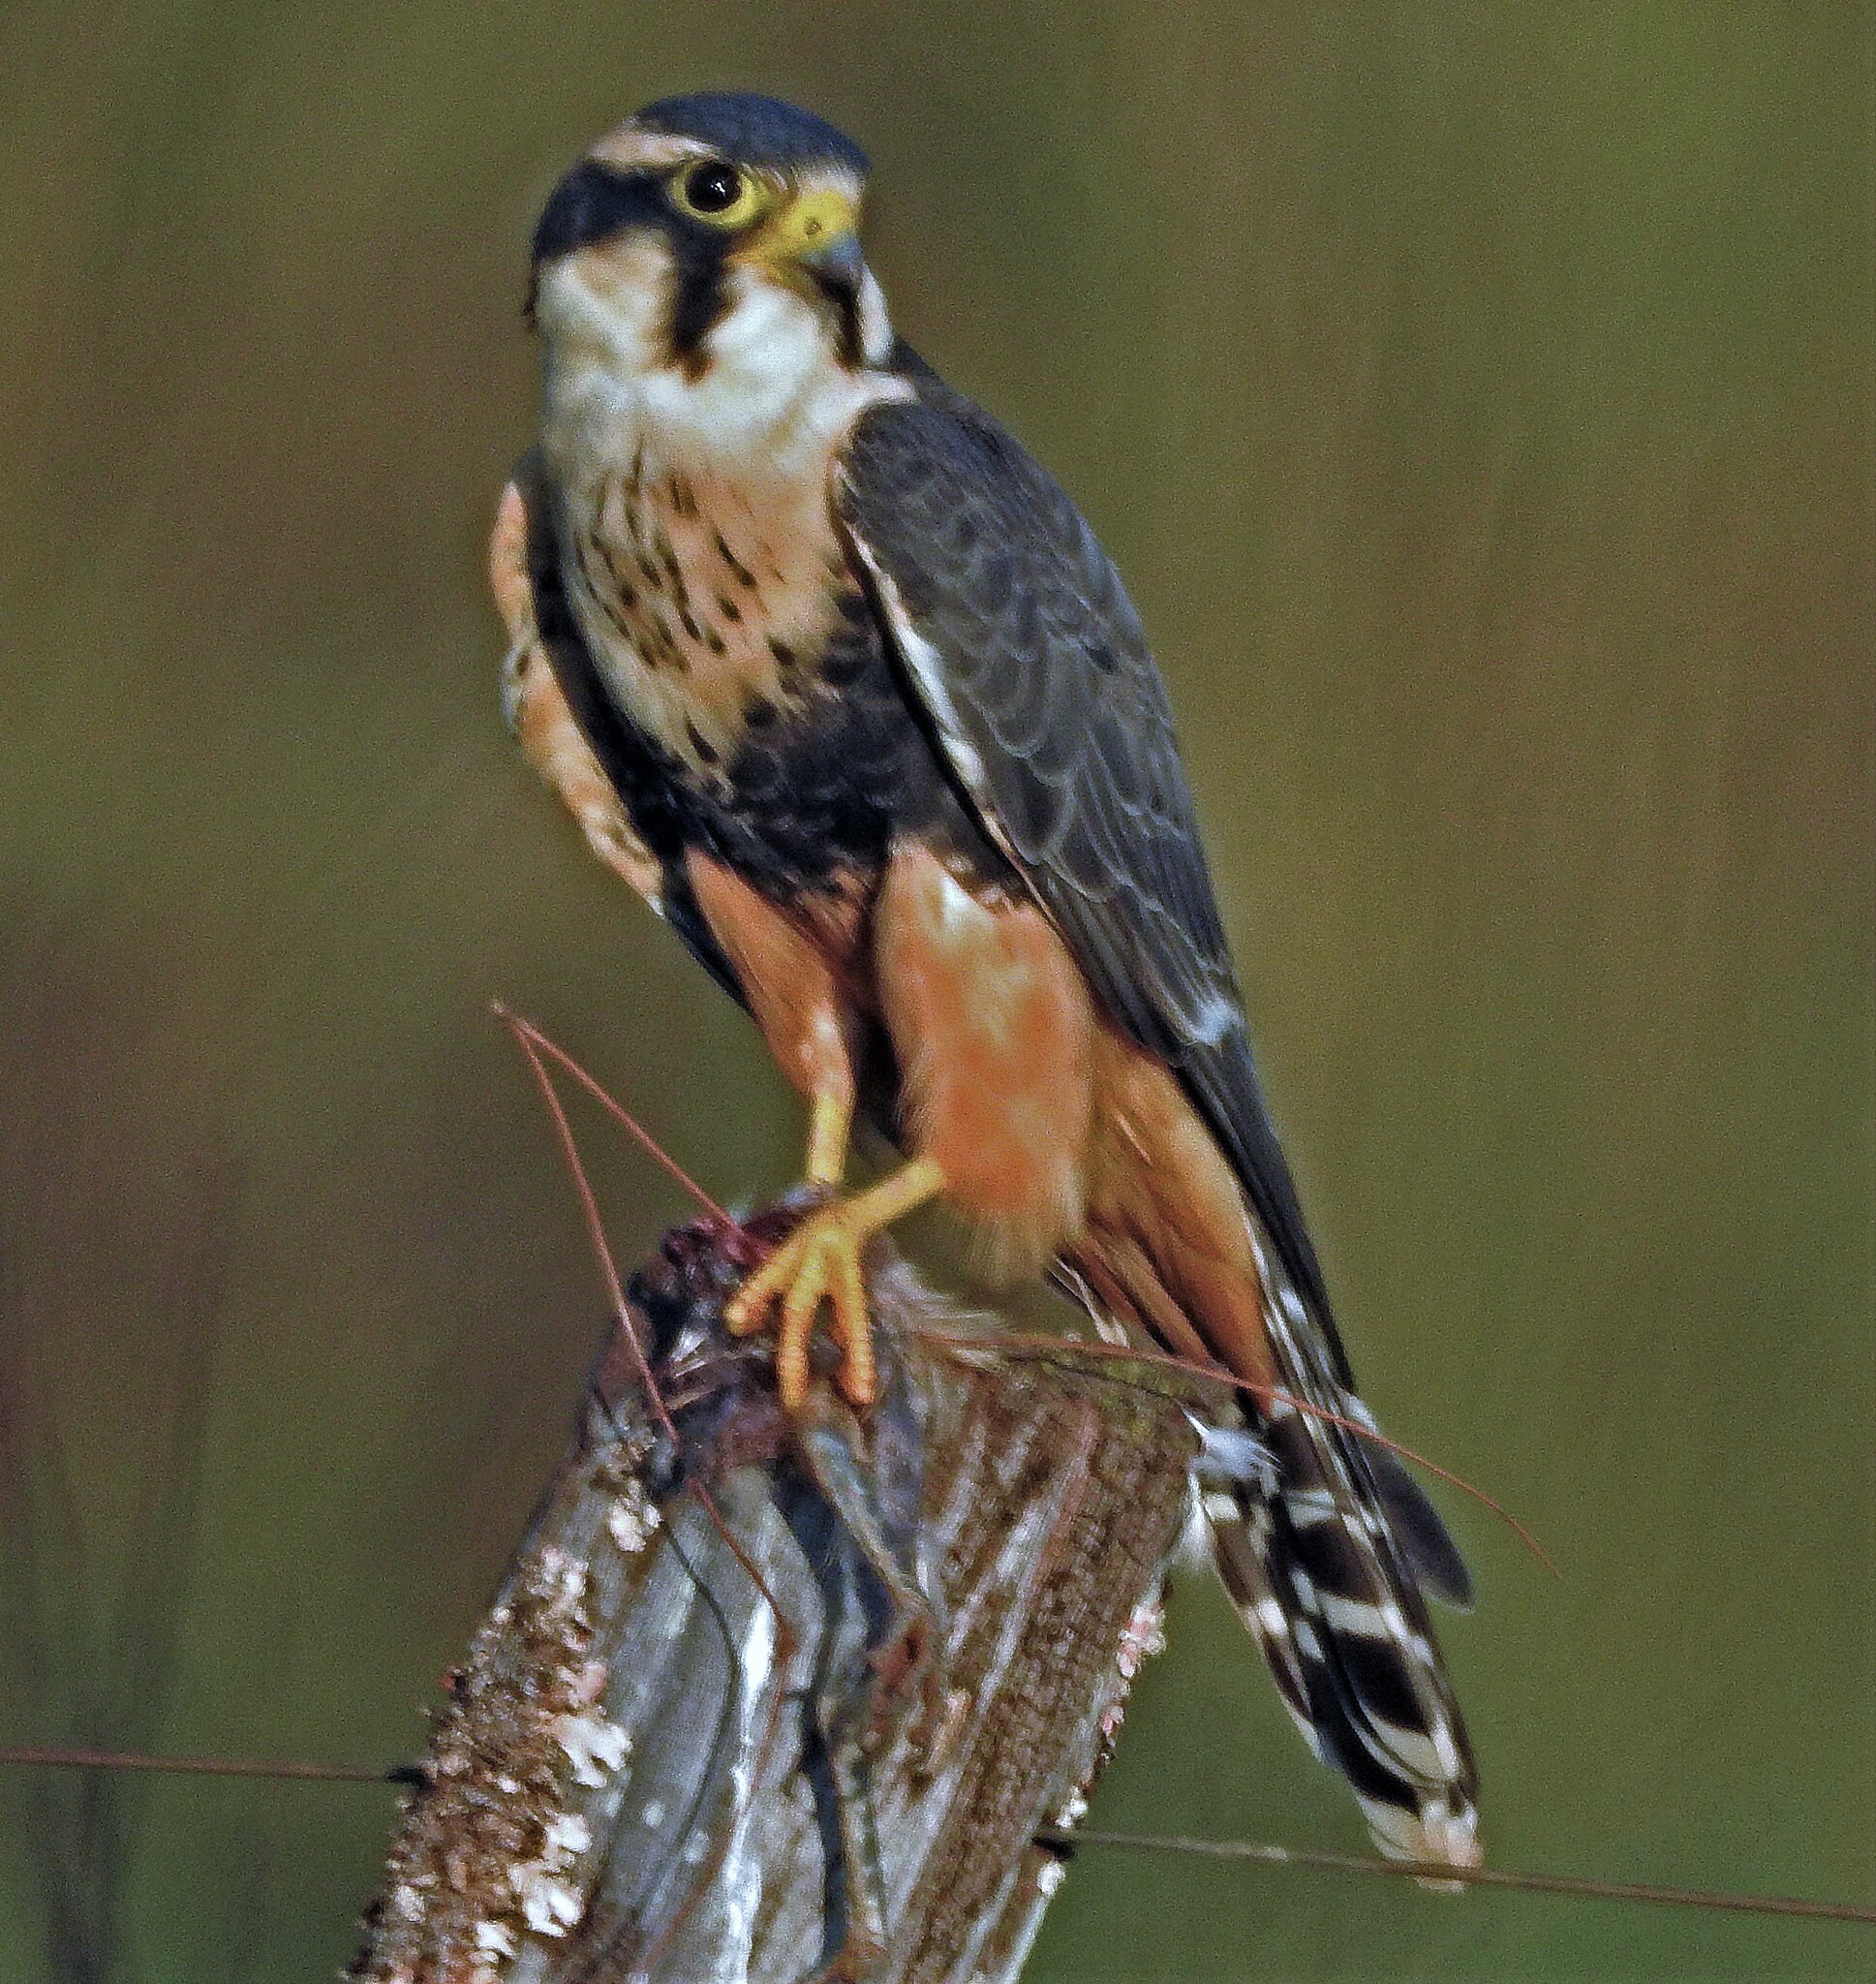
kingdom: Animalia
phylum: Chordata
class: Aves
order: Falconiformes
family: Falconidae
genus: Falco
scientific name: Falco femoralis
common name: Aplomado falcon
